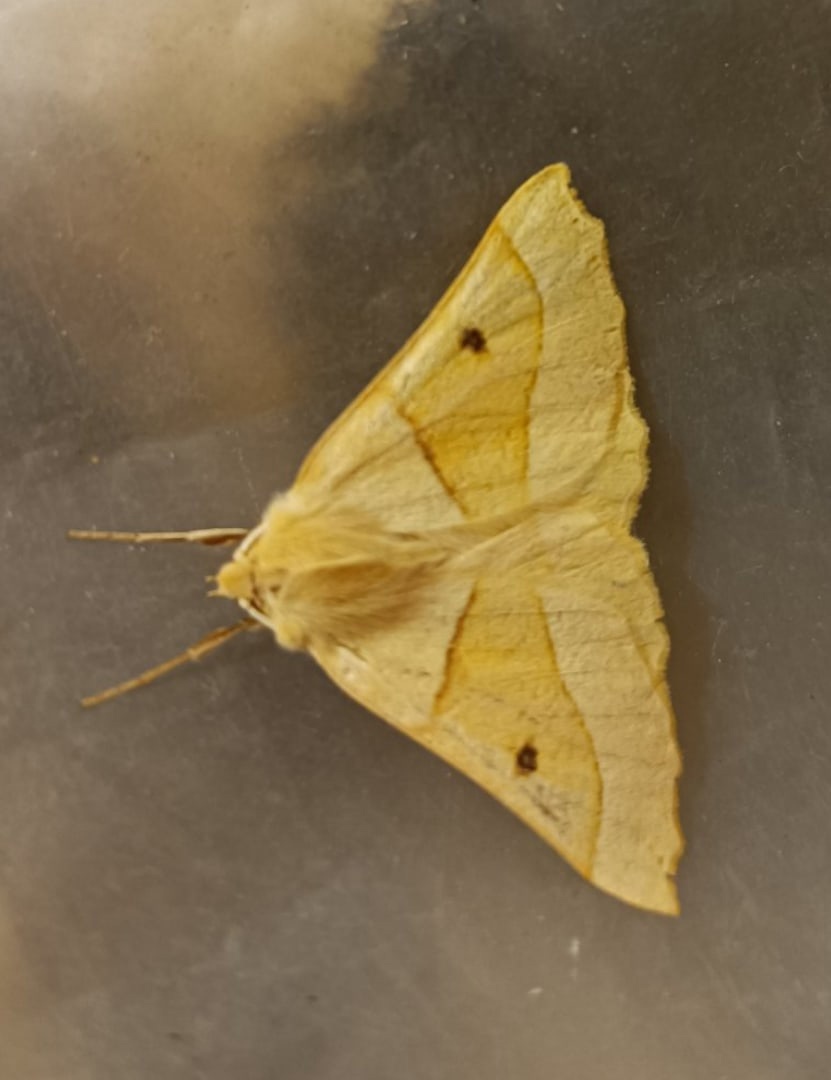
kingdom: Animalia
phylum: Arthropoda
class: Insecta
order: Lepidoptera
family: Geometridae
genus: Crocallis
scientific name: Crocallis elinguaria
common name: Scalloped oak
